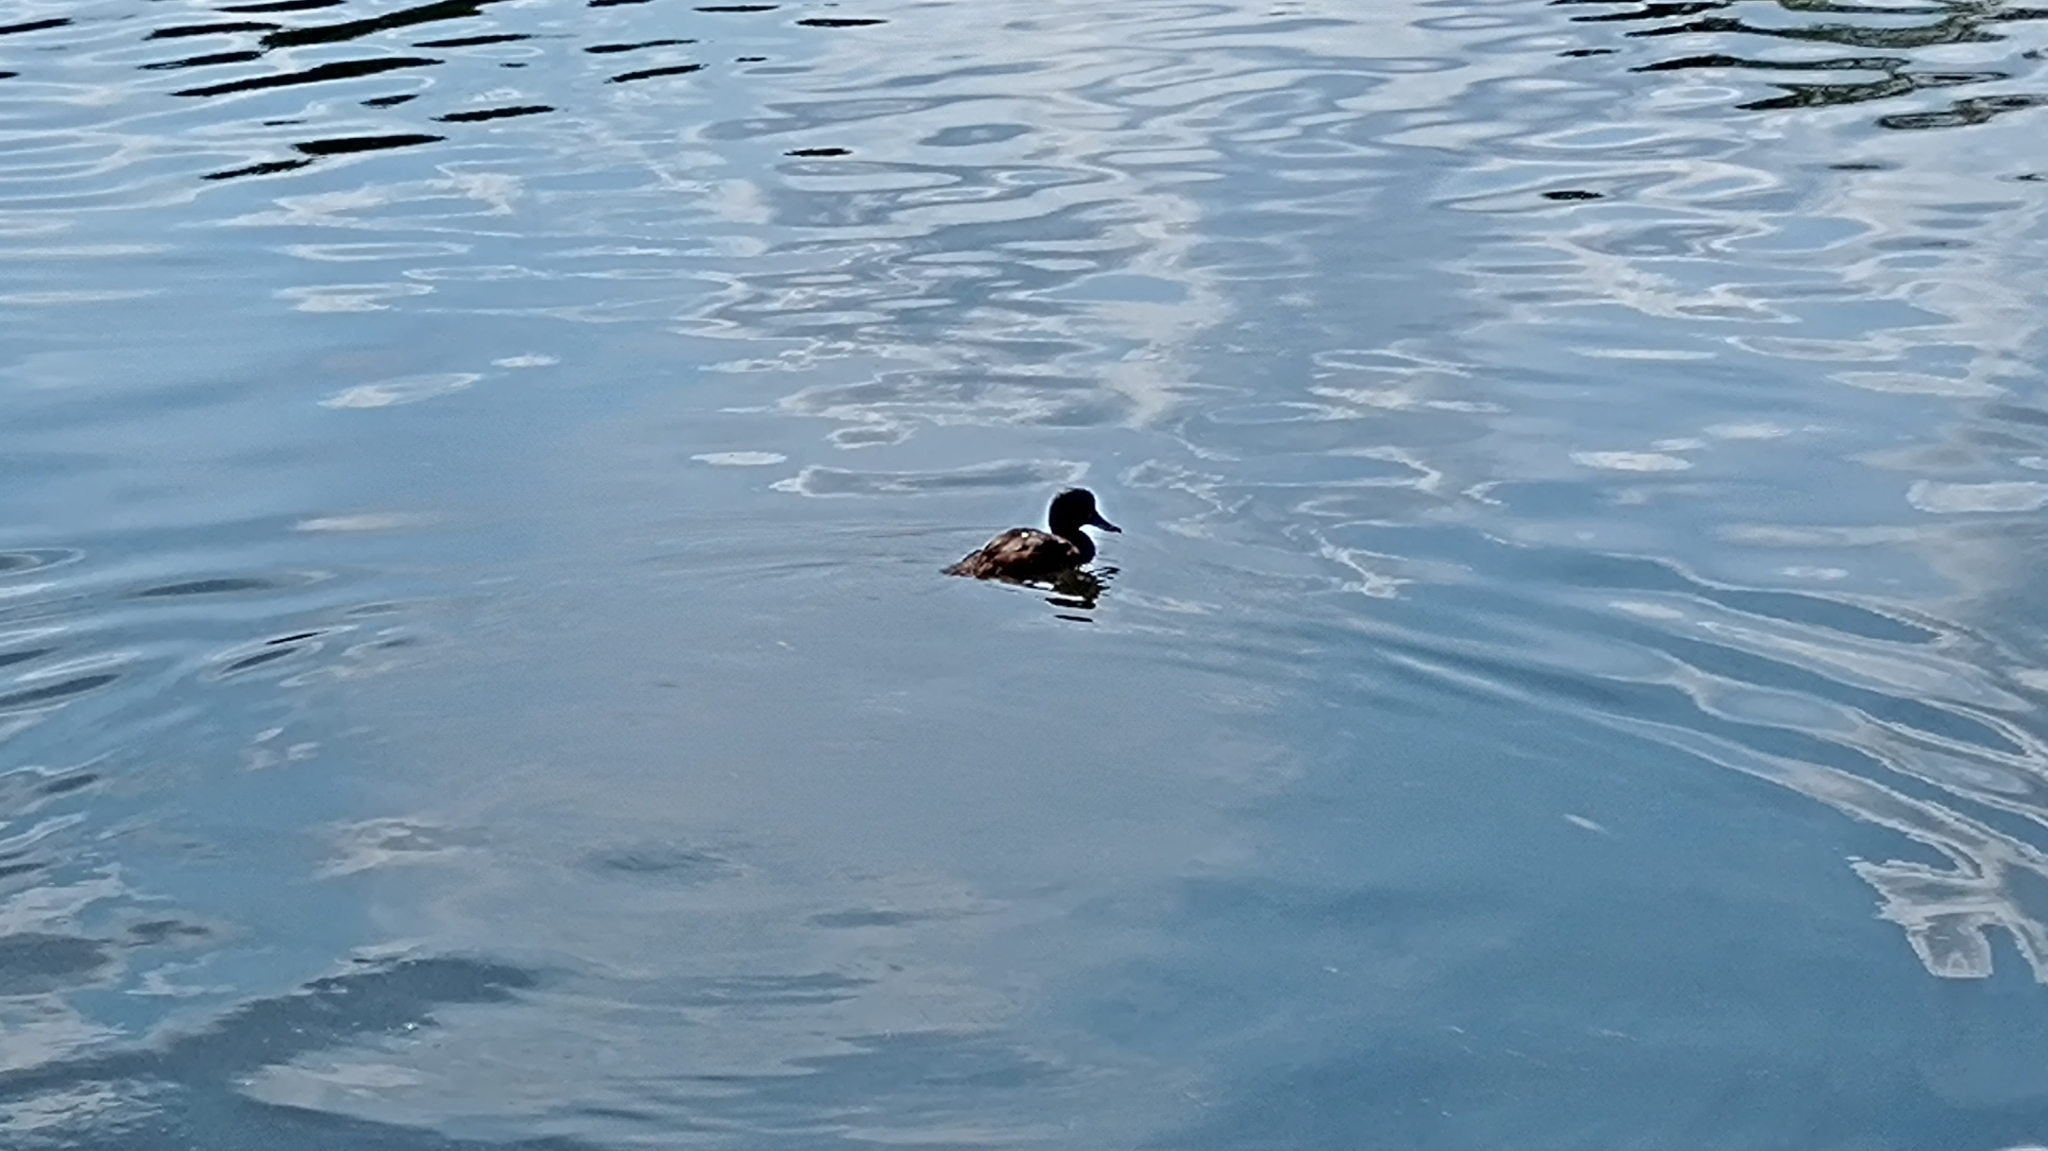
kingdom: Animalia
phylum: Chordata
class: Aves
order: Anseriformes
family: Anatidae
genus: Aythya
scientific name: Aythya fuligula
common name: Tufted duck
